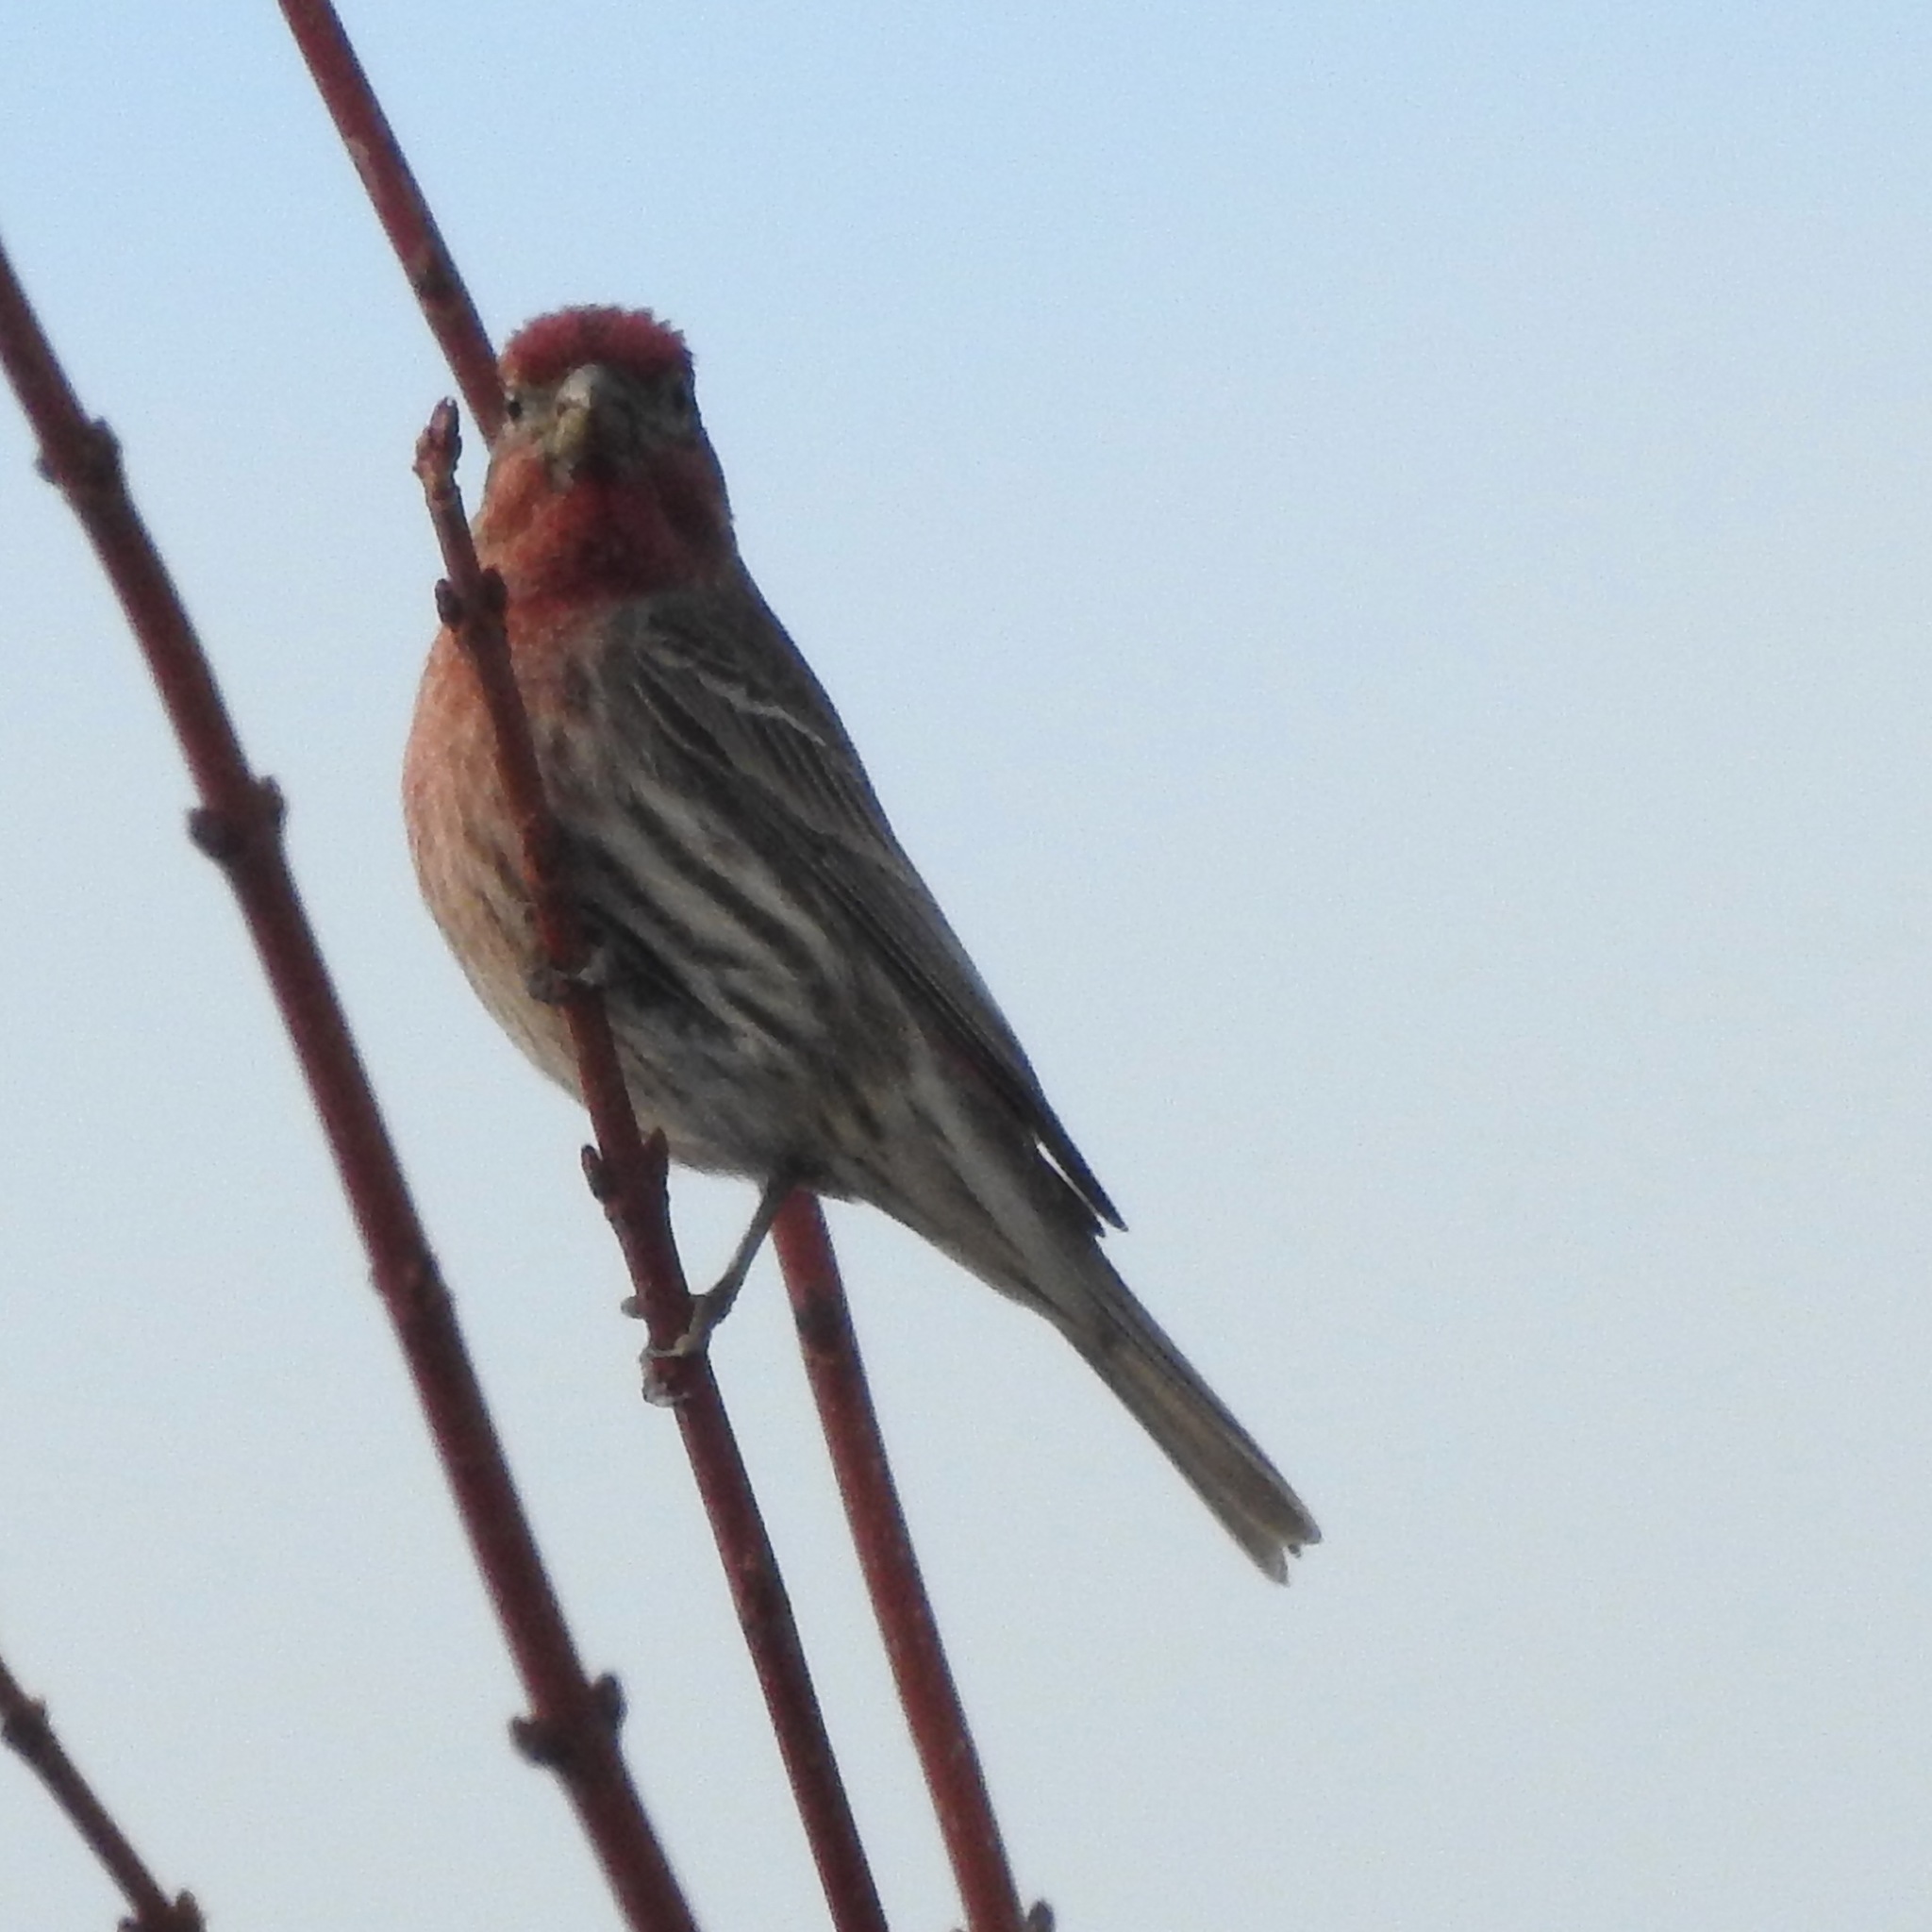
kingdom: Animalia
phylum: Chordata
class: Aves
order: Passeriformes
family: Fringillidae
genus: Haemorhous
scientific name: Haemorhous mexicanus
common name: House finch
